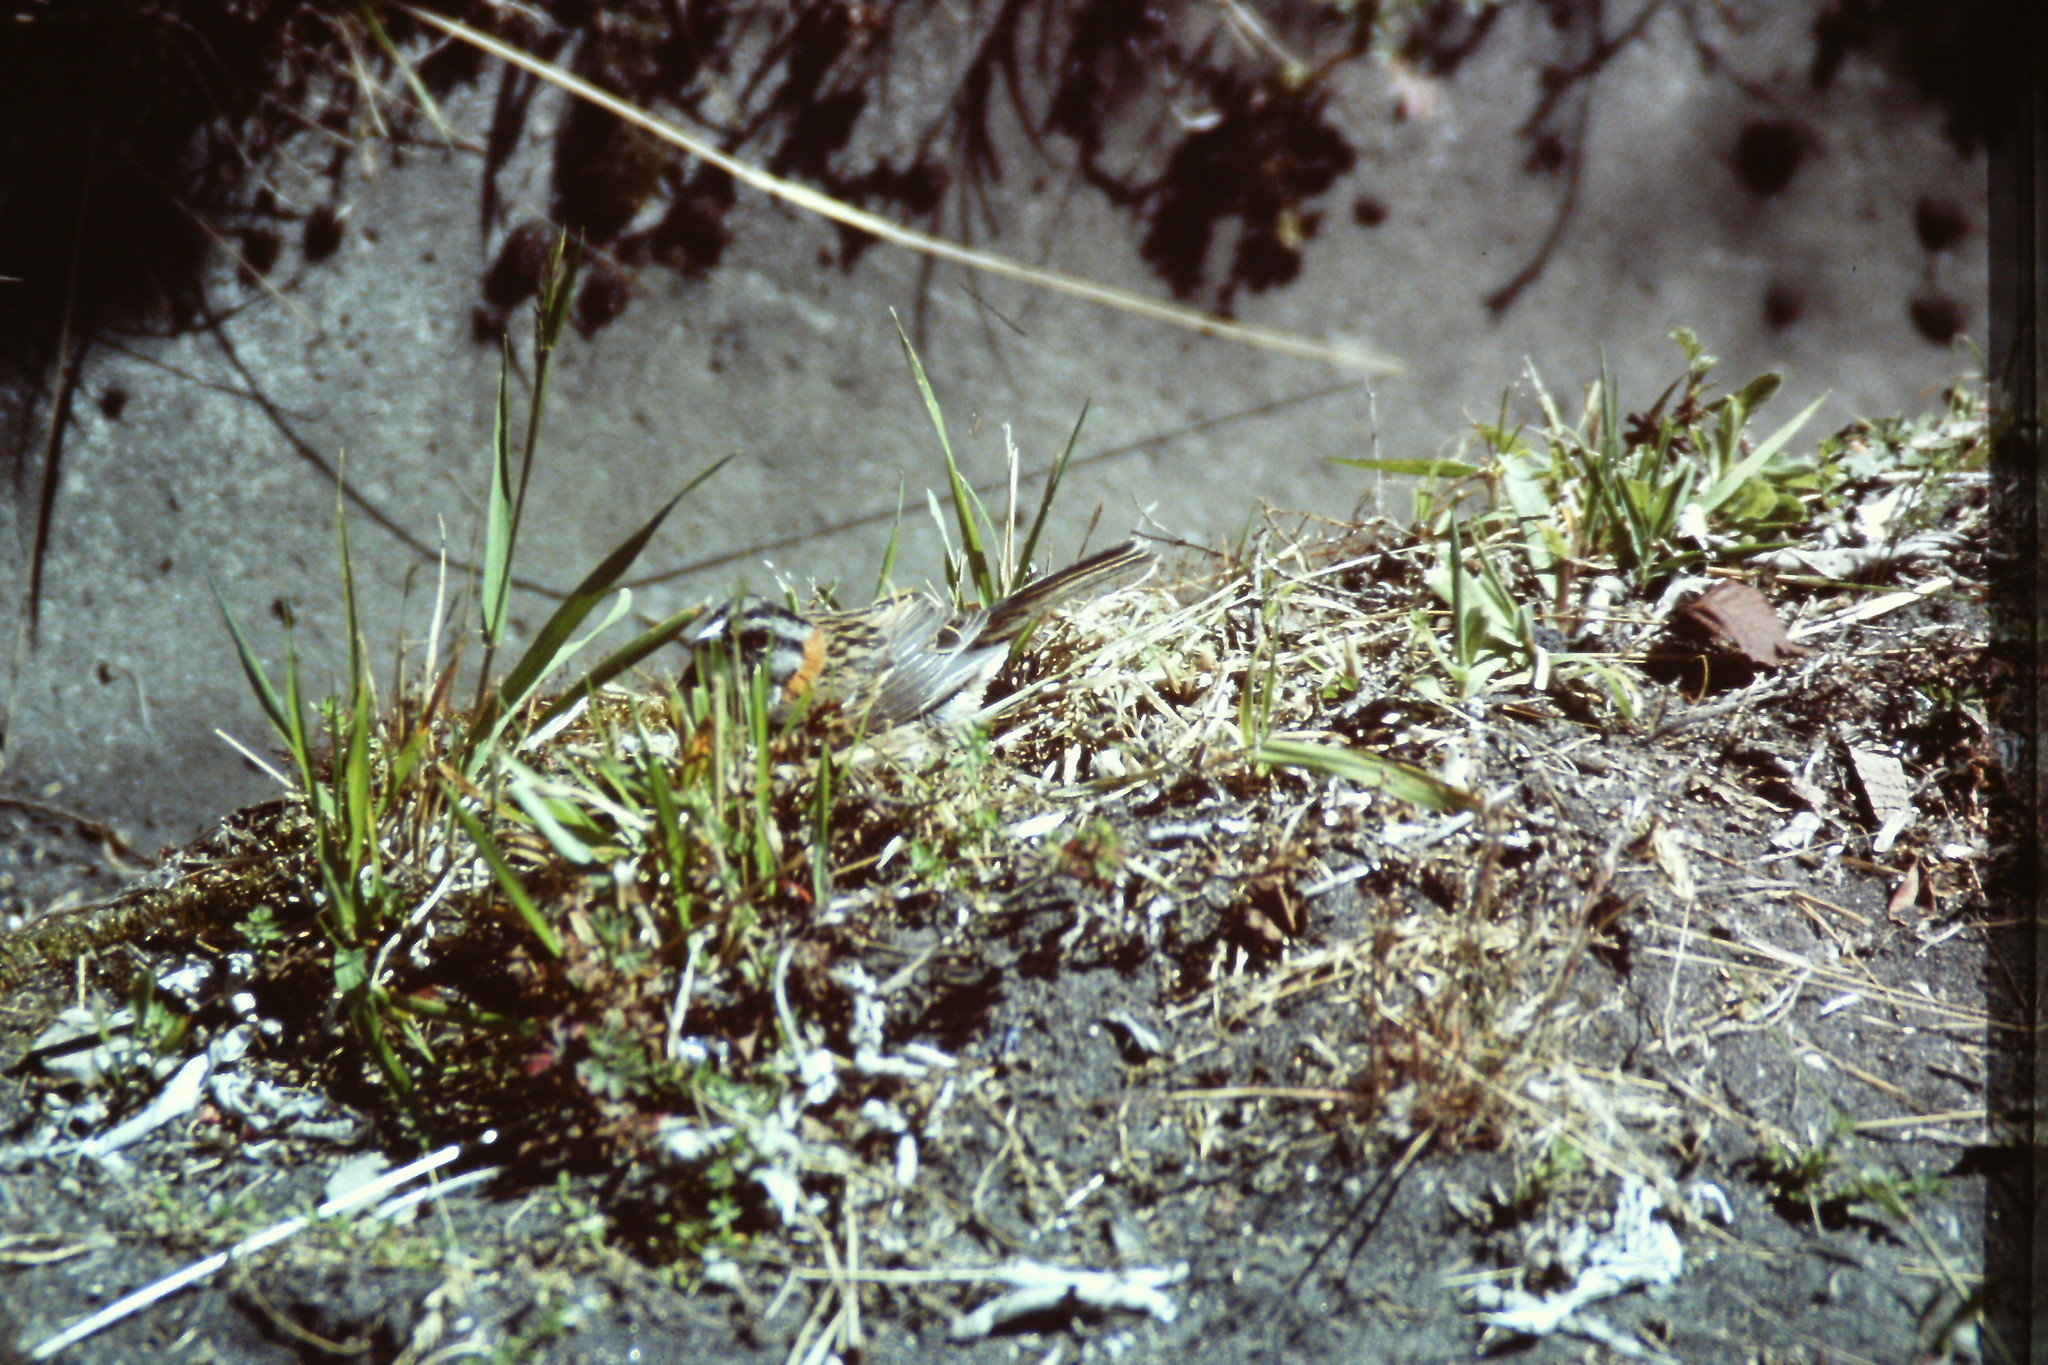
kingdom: Animalia
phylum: Chordata
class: Aves
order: Passeriformes
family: Passerellidae
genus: Zonotrichia
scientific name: Zonotrichia capensis
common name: Rufous-collared sparrow
